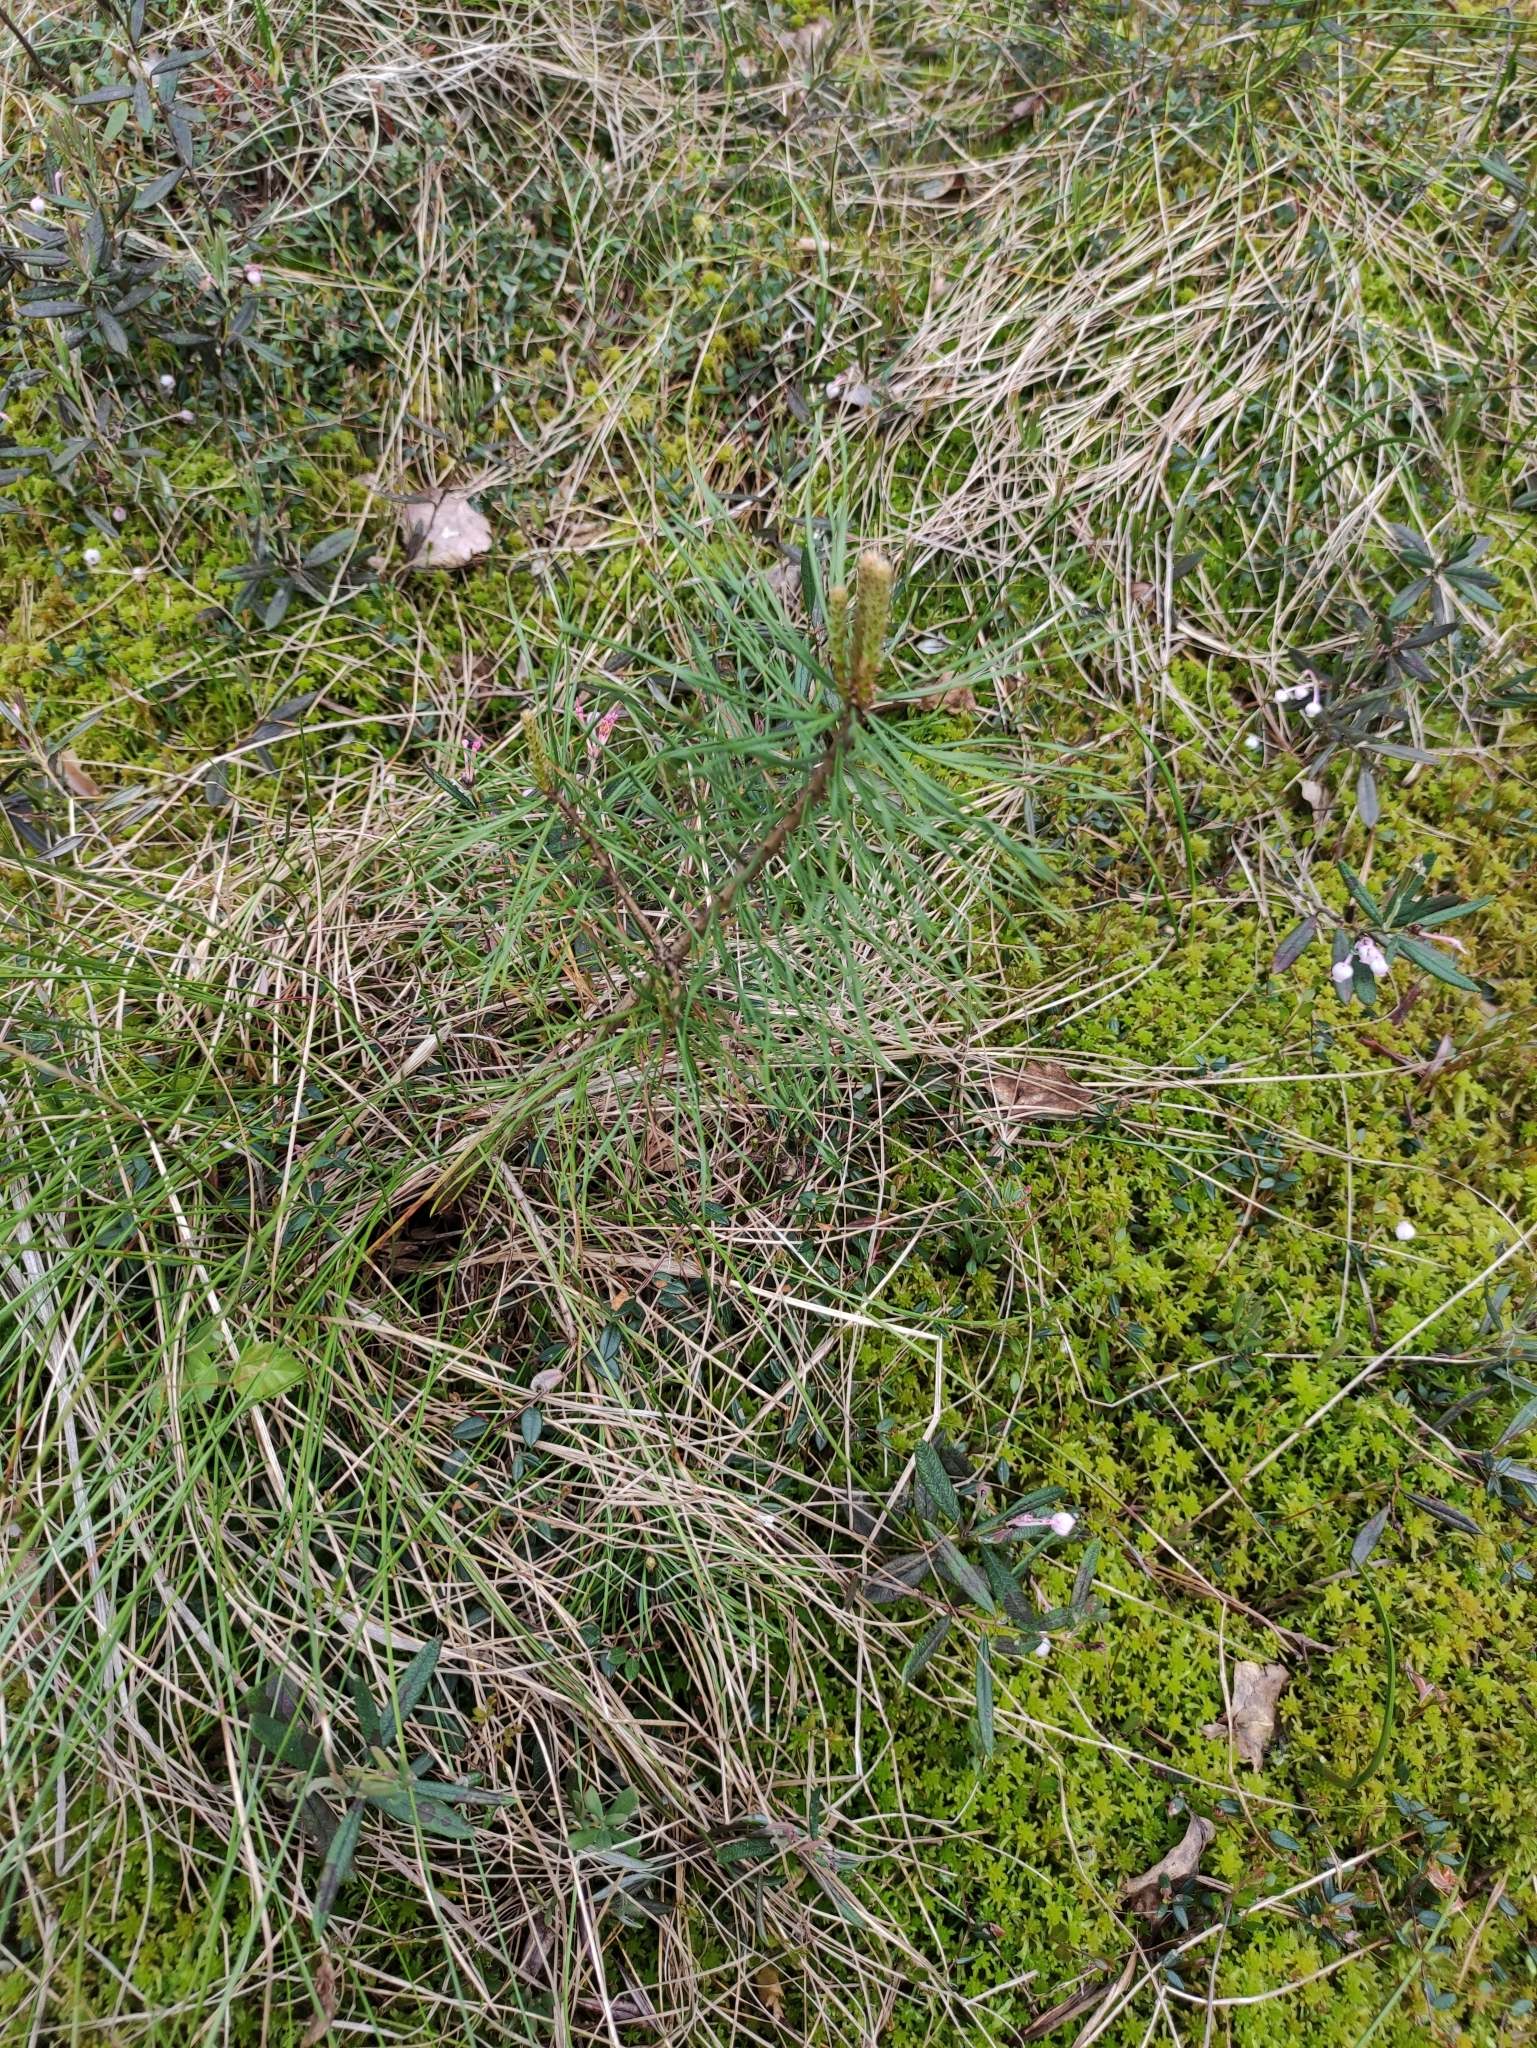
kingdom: Plantae
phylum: Tracheophyta
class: Pinopsida
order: Pinales
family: Pinaceae
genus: Pinus
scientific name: Pinus sylvestris
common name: Scots pine
